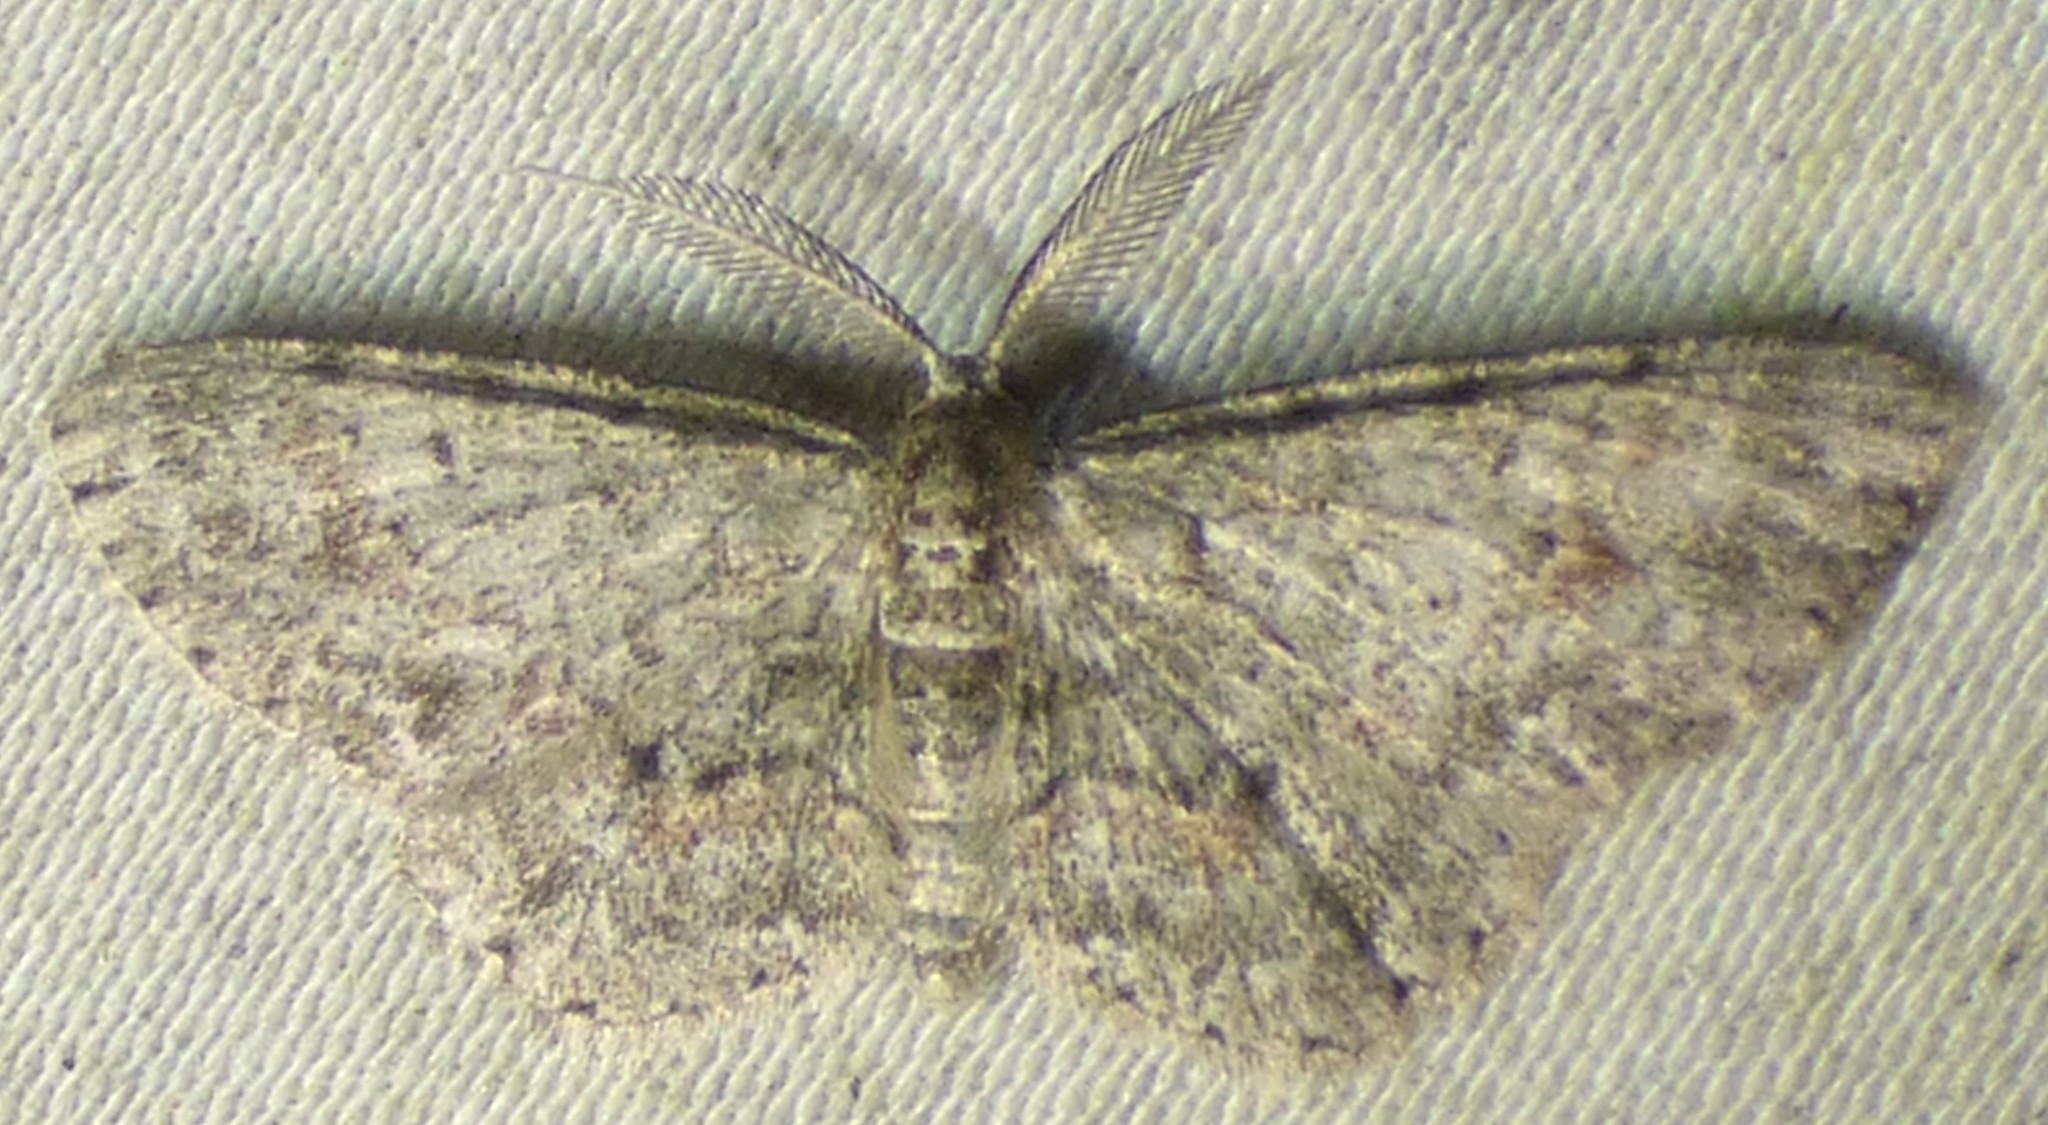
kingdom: Animalia
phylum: Arthropoda
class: Insecta
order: Lepidoptera
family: Geometridae
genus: Glenoides
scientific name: Glenoides texanaria
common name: Texas gray
